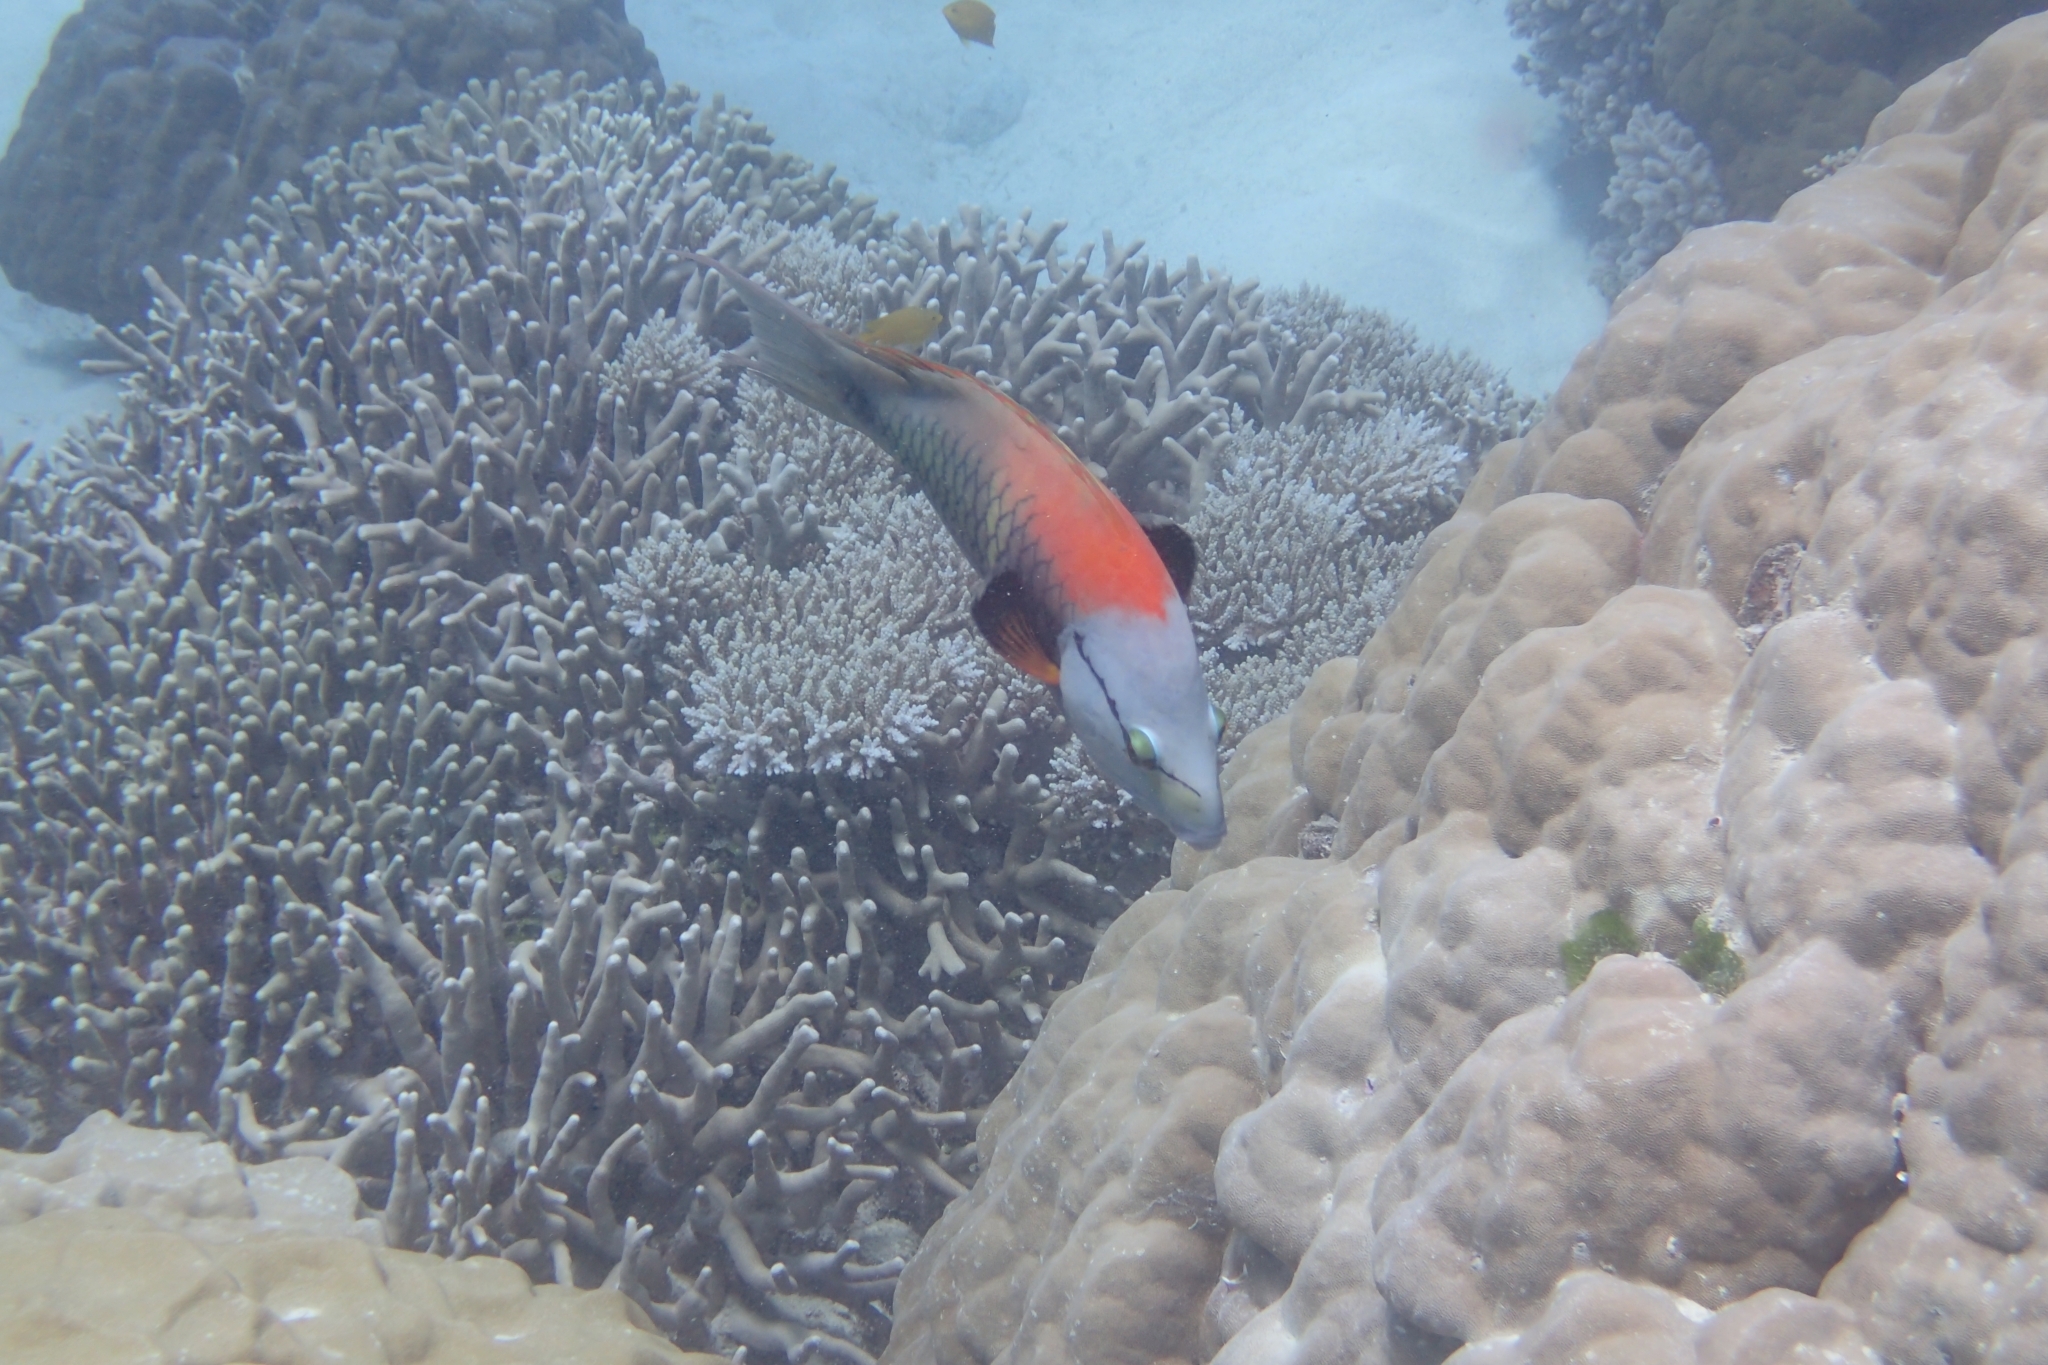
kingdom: Animalia
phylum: Chordata
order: Perciformes
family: Labridae
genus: Epibulus
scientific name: Epibulus insidiator
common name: Slingjaw wrasse
